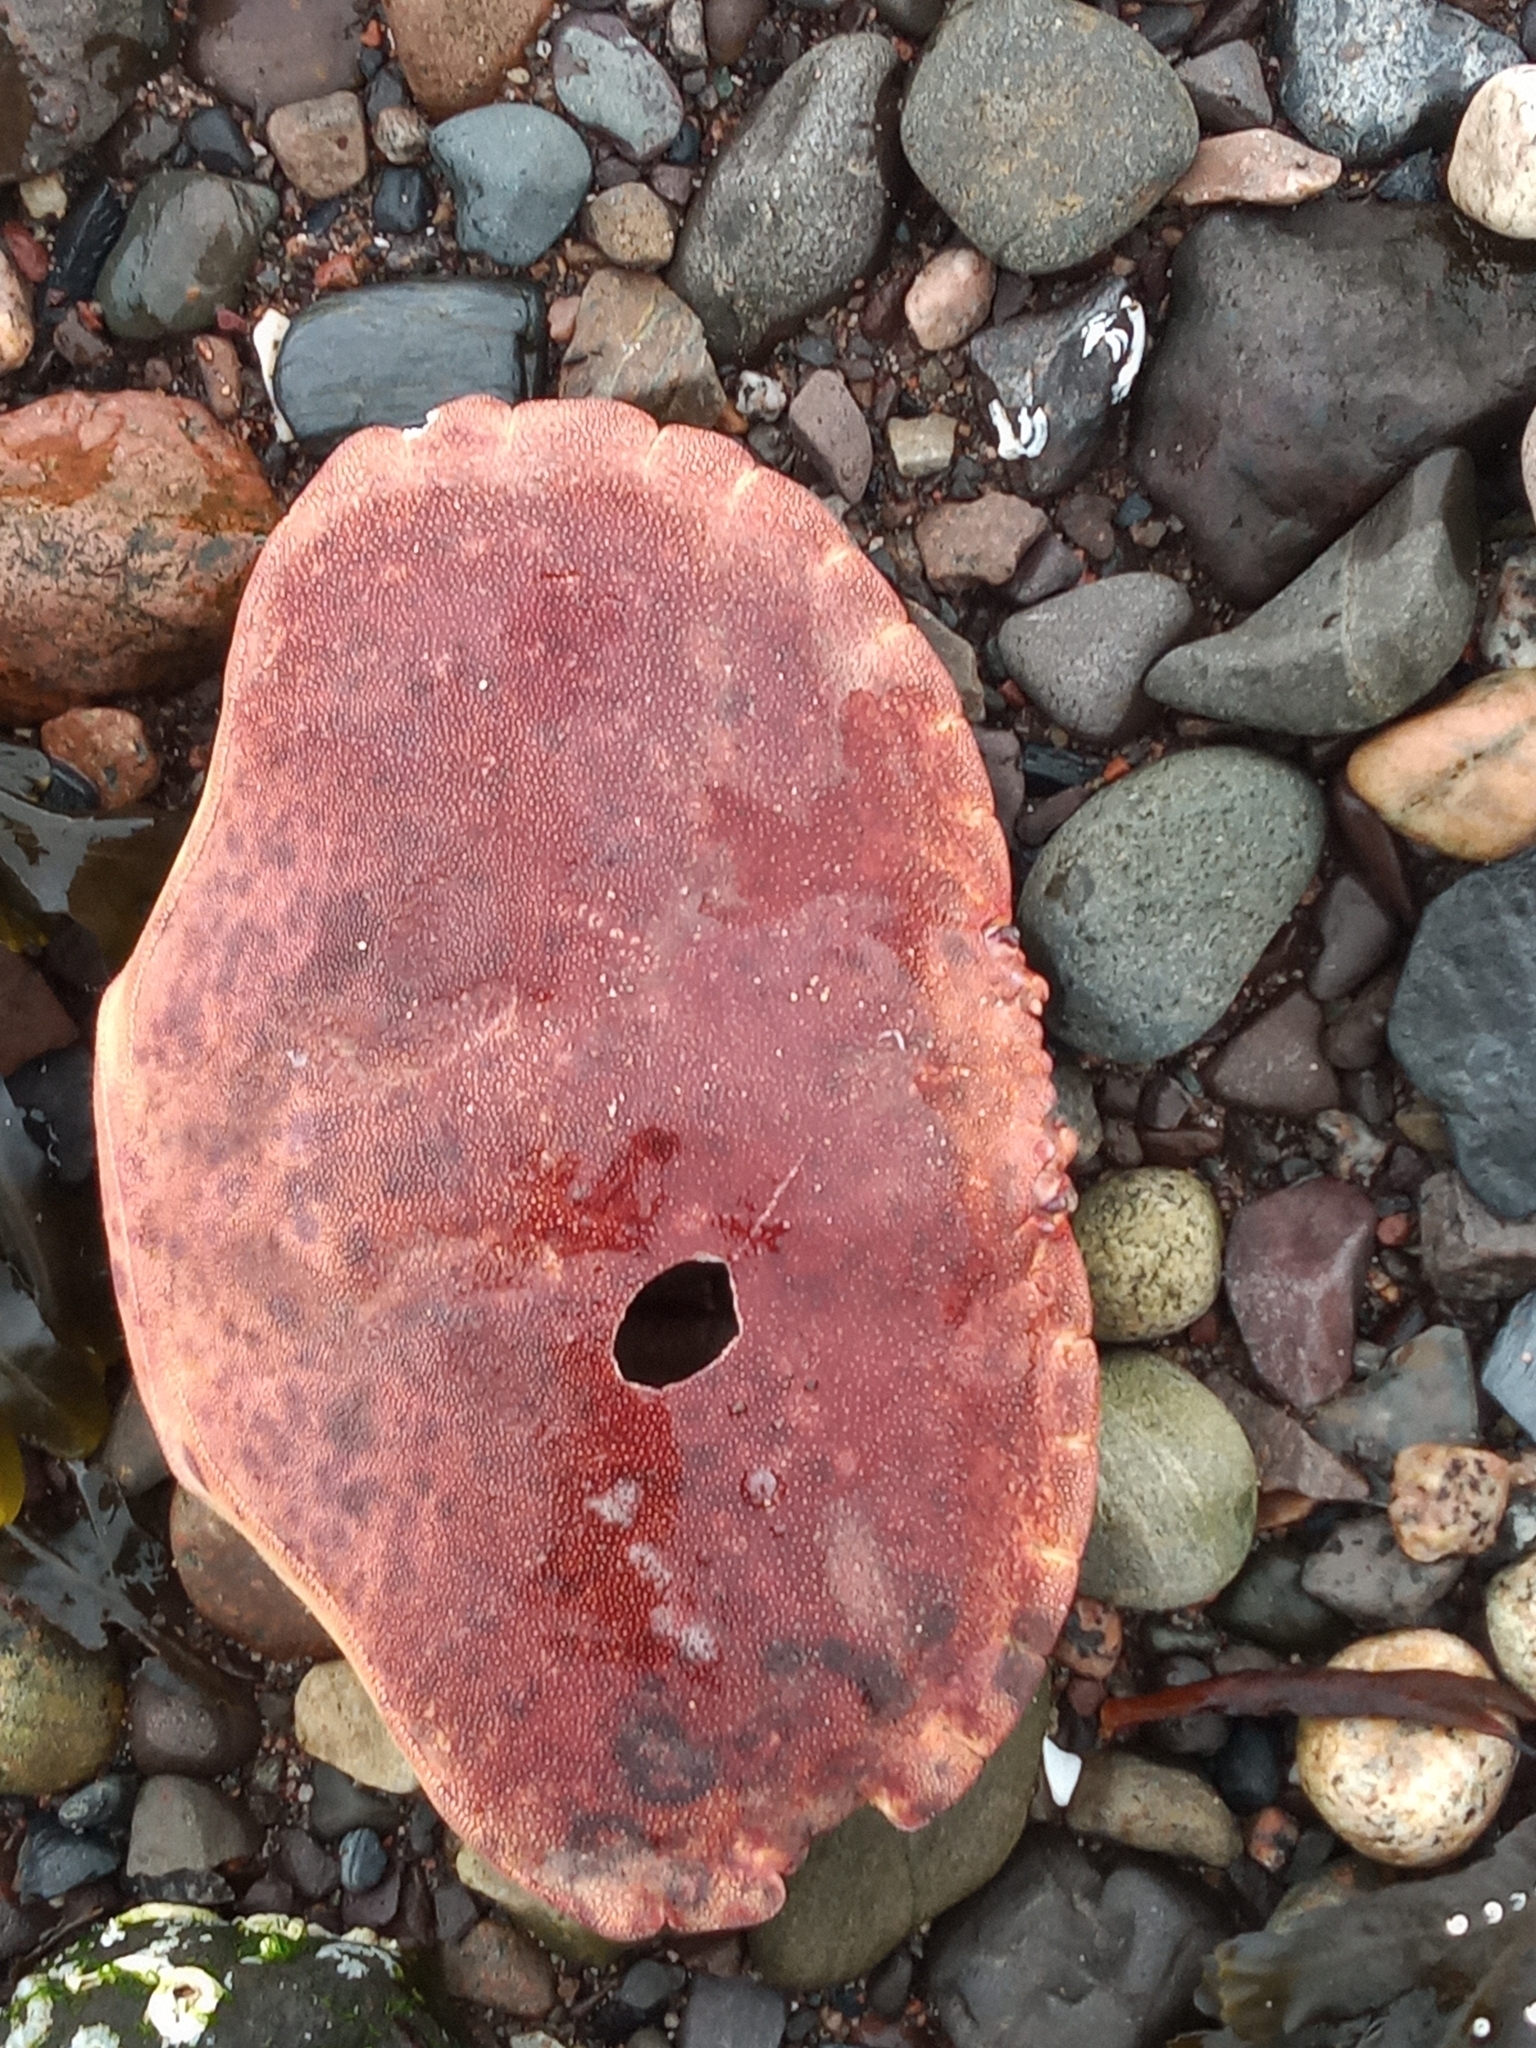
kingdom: Animalia
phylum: Arthropoda
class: Malacostraca
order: Decapoda
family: Cancridae
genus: Cancer
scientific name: Cancer pagurus
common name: Edible crab
